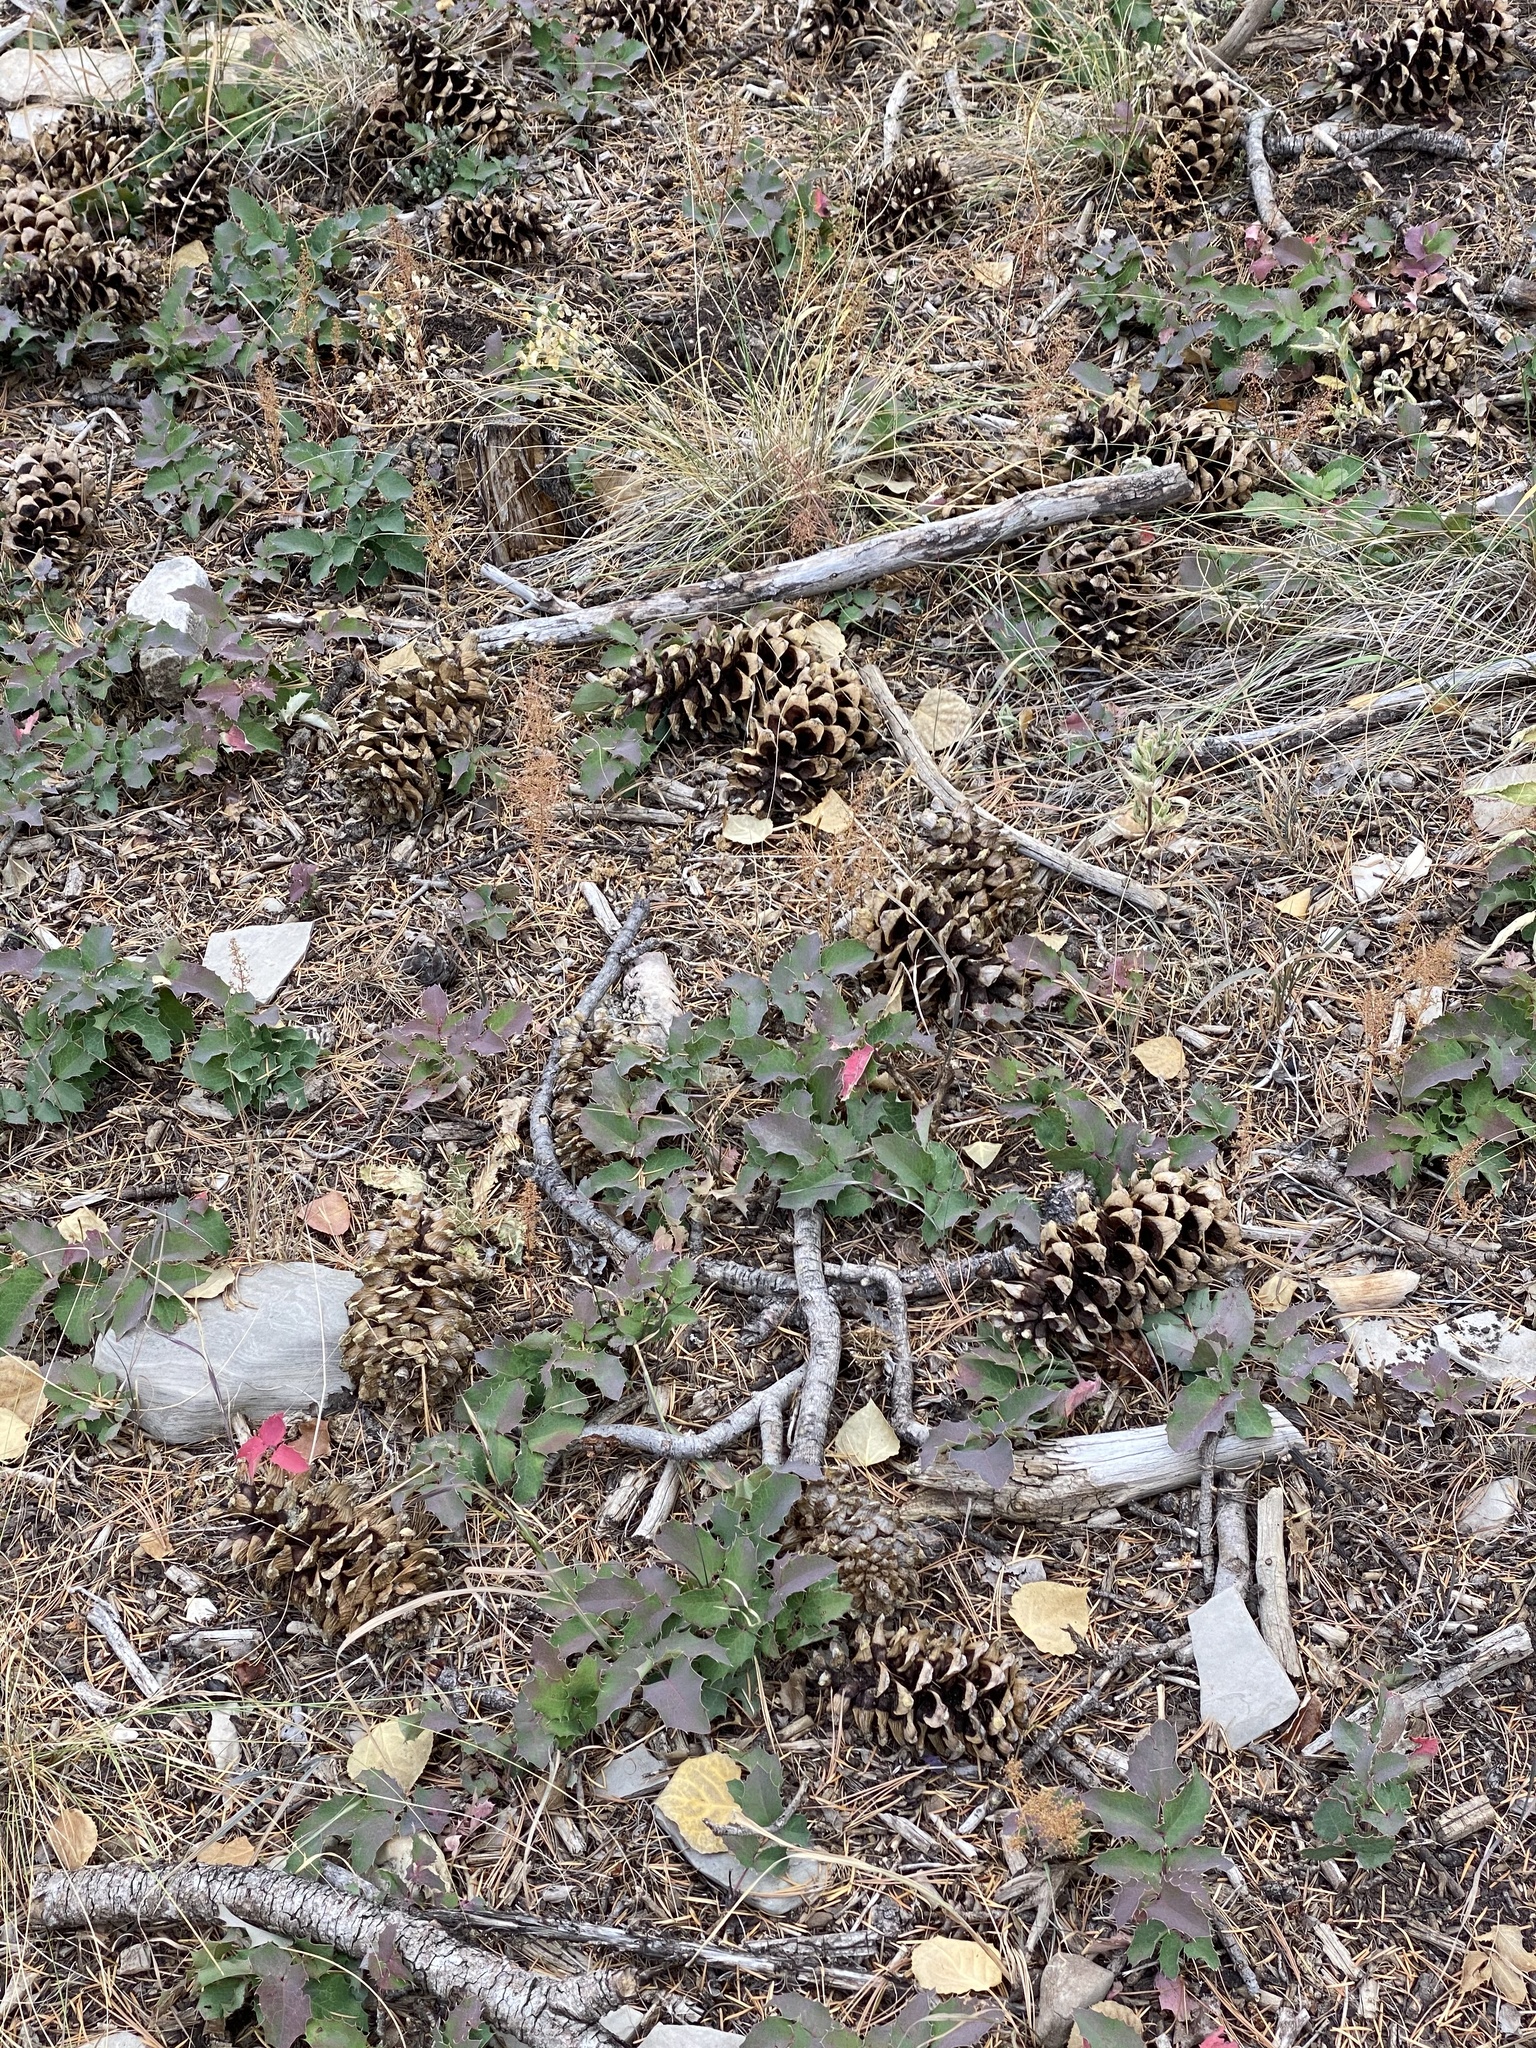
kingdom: Plantae
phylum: Tracheophyta
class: Pinopsida
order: Pinales
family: Pinaceae
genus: Pinus
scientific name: Pinus strobiformis
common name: Southwestern white pine
